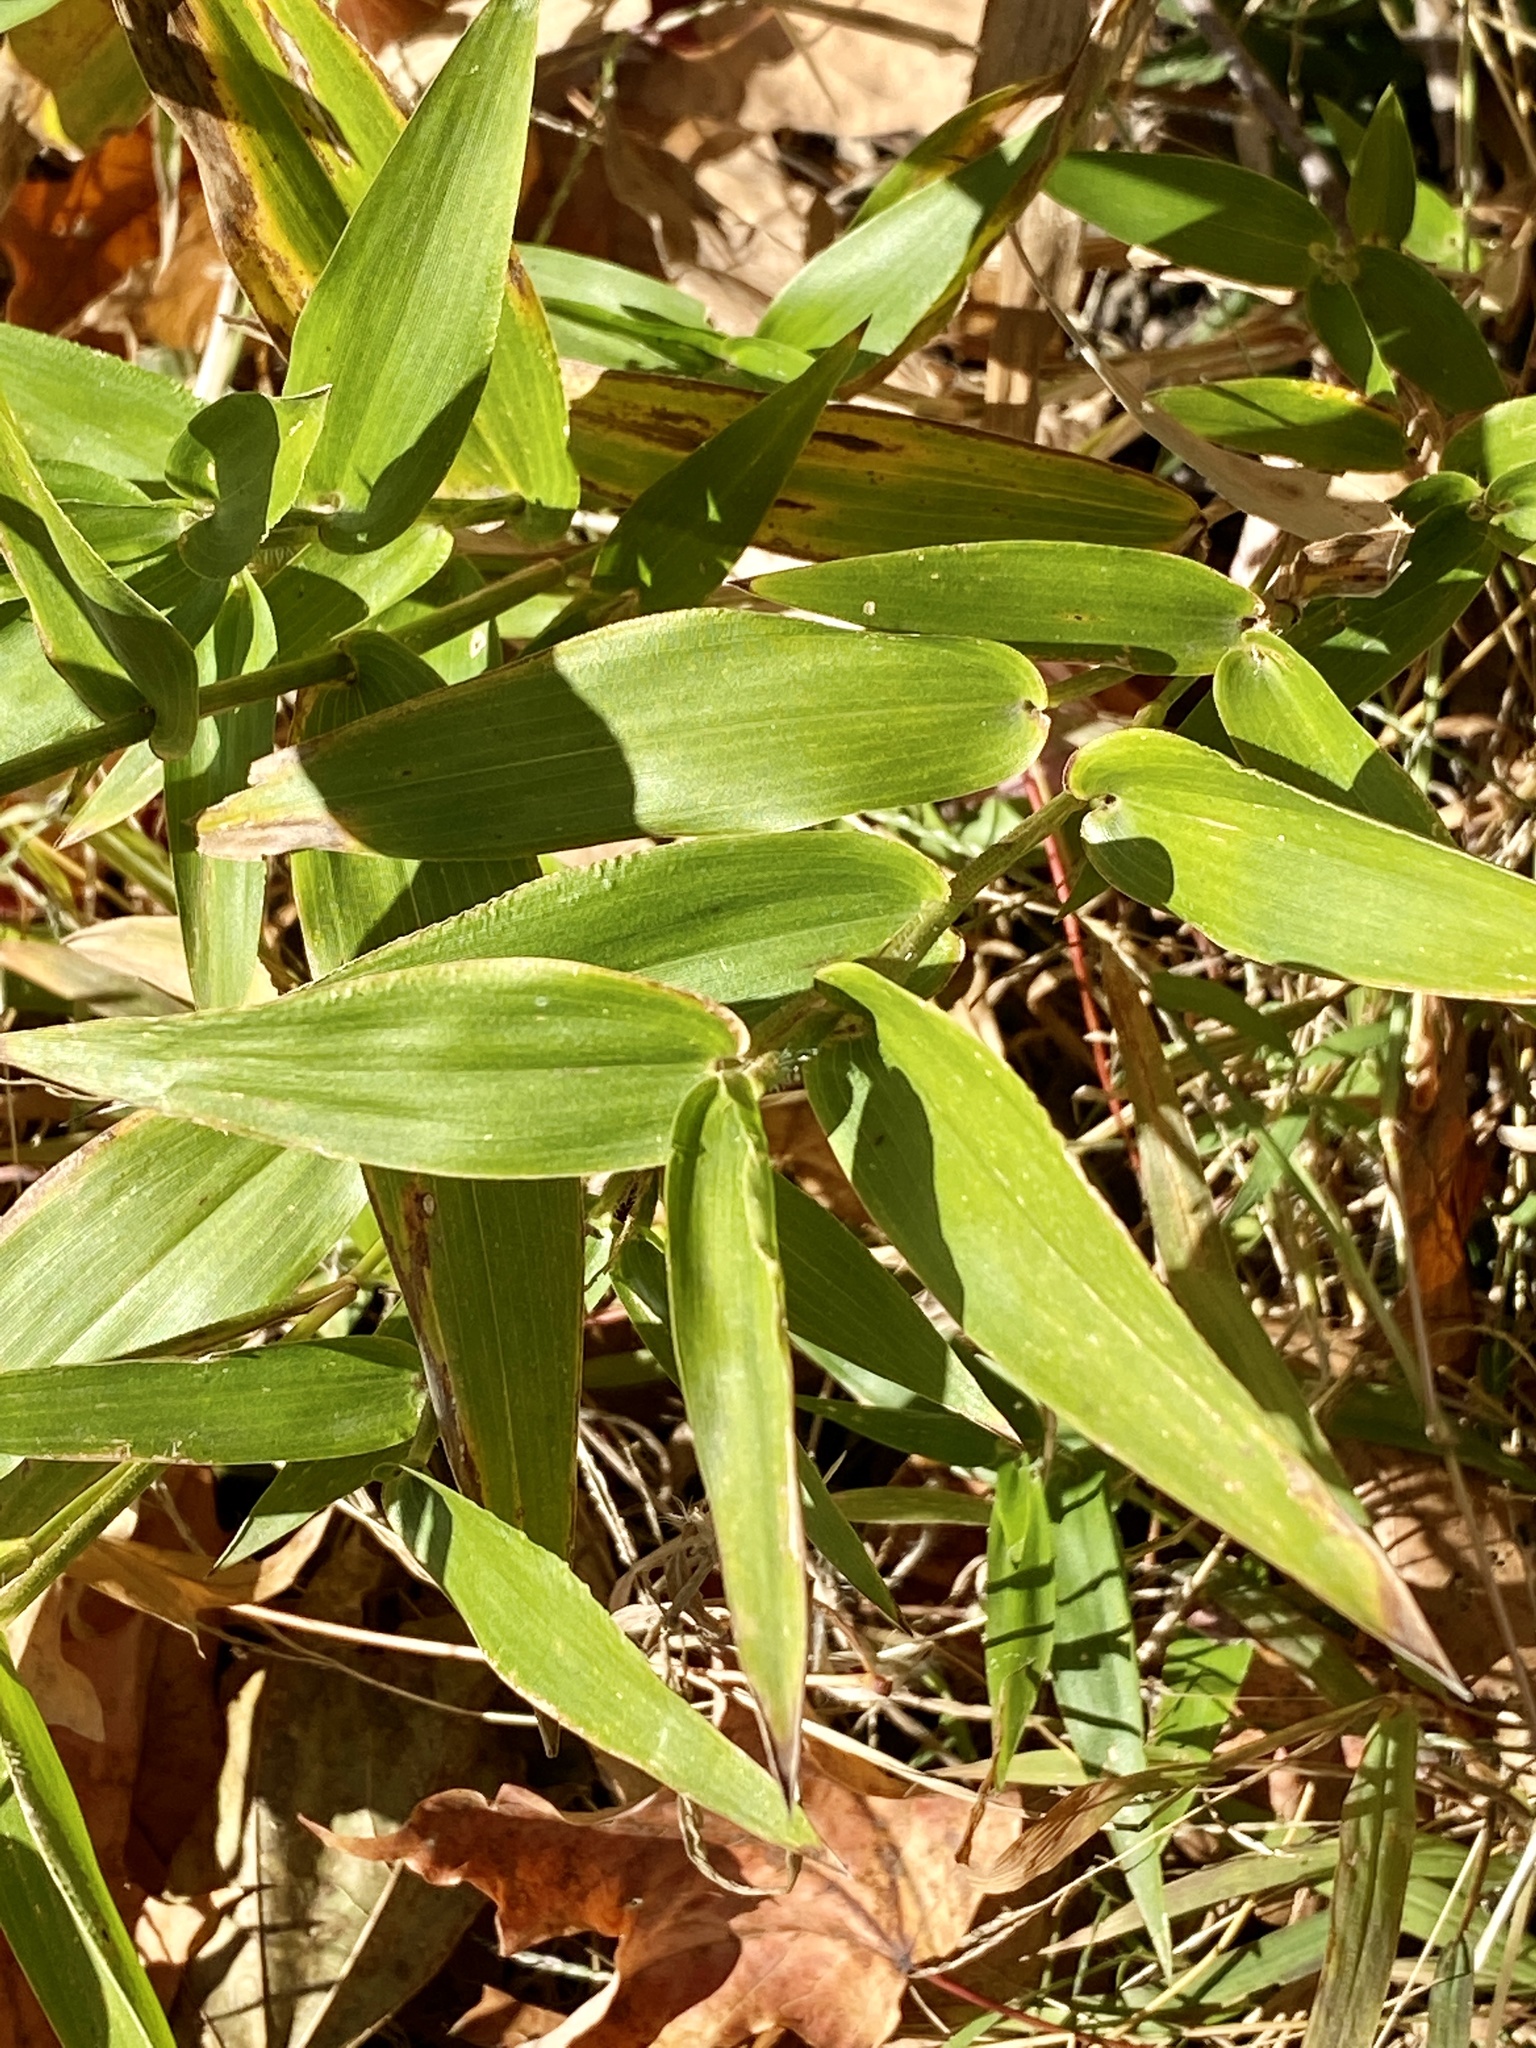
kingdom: Plantae
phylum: Tracheophyta
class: Liliopsida
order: Poales
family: Poaceae
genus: Dichanthelium
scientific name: Dichanthelium clandestinum
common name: Deer-tongue grass
